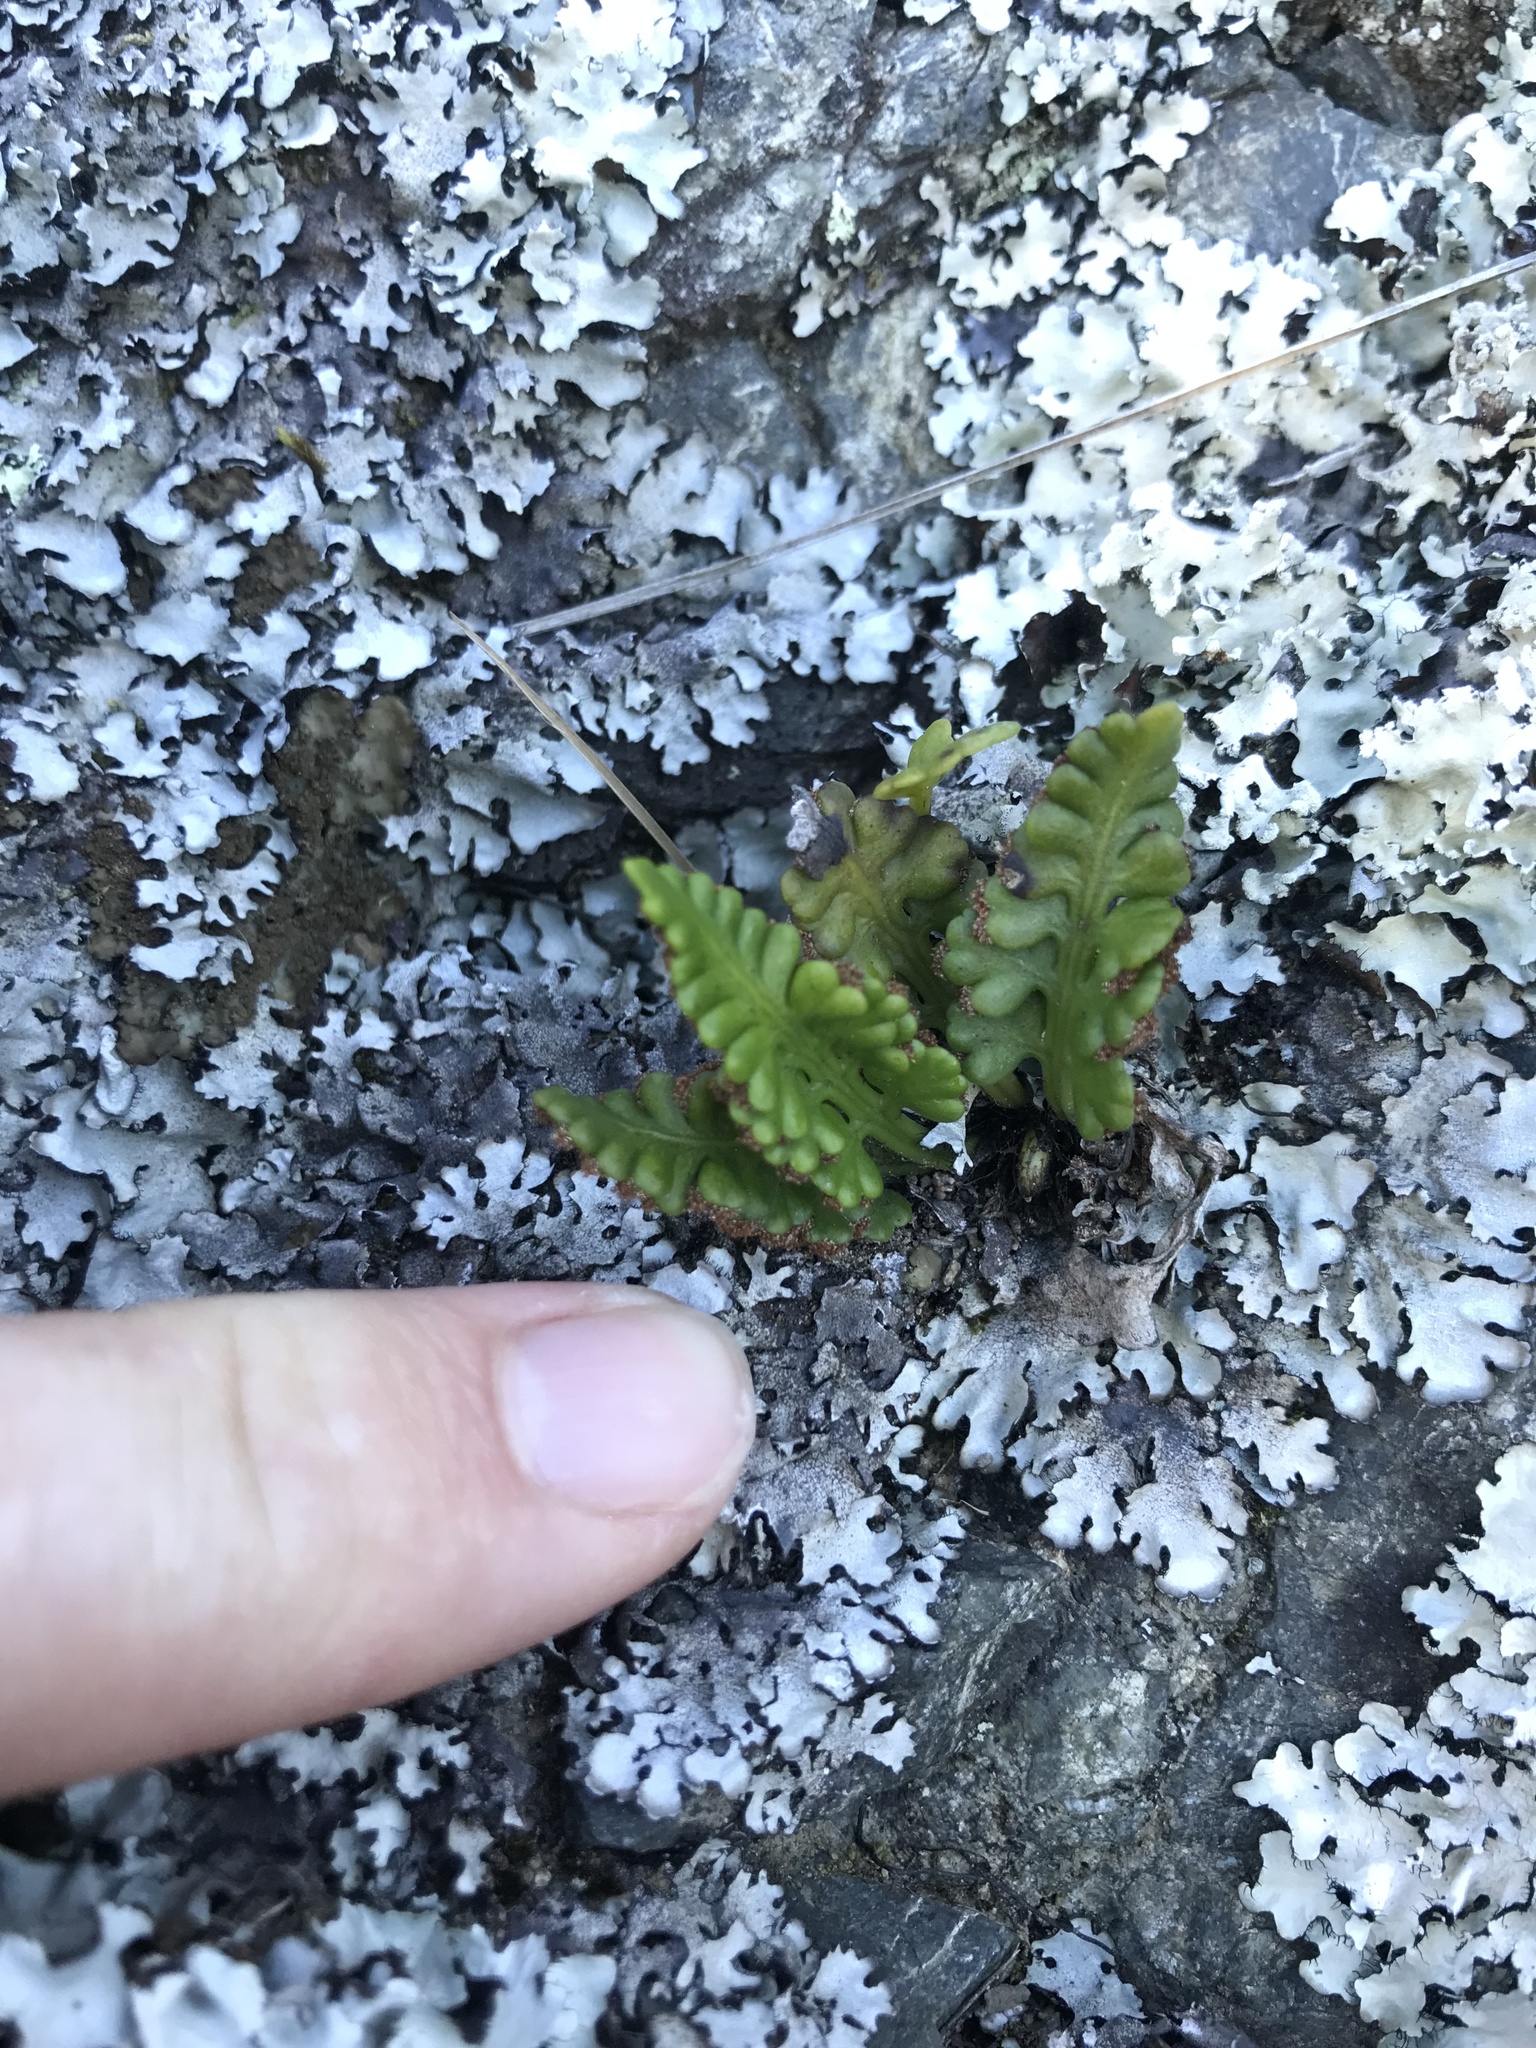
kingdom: Plantae
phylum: Tracheophyta
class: Polypodiopsida
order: Polypodiales
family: Aspleniaceae
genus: Asplenium
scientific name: Asplenium appendiculatum
